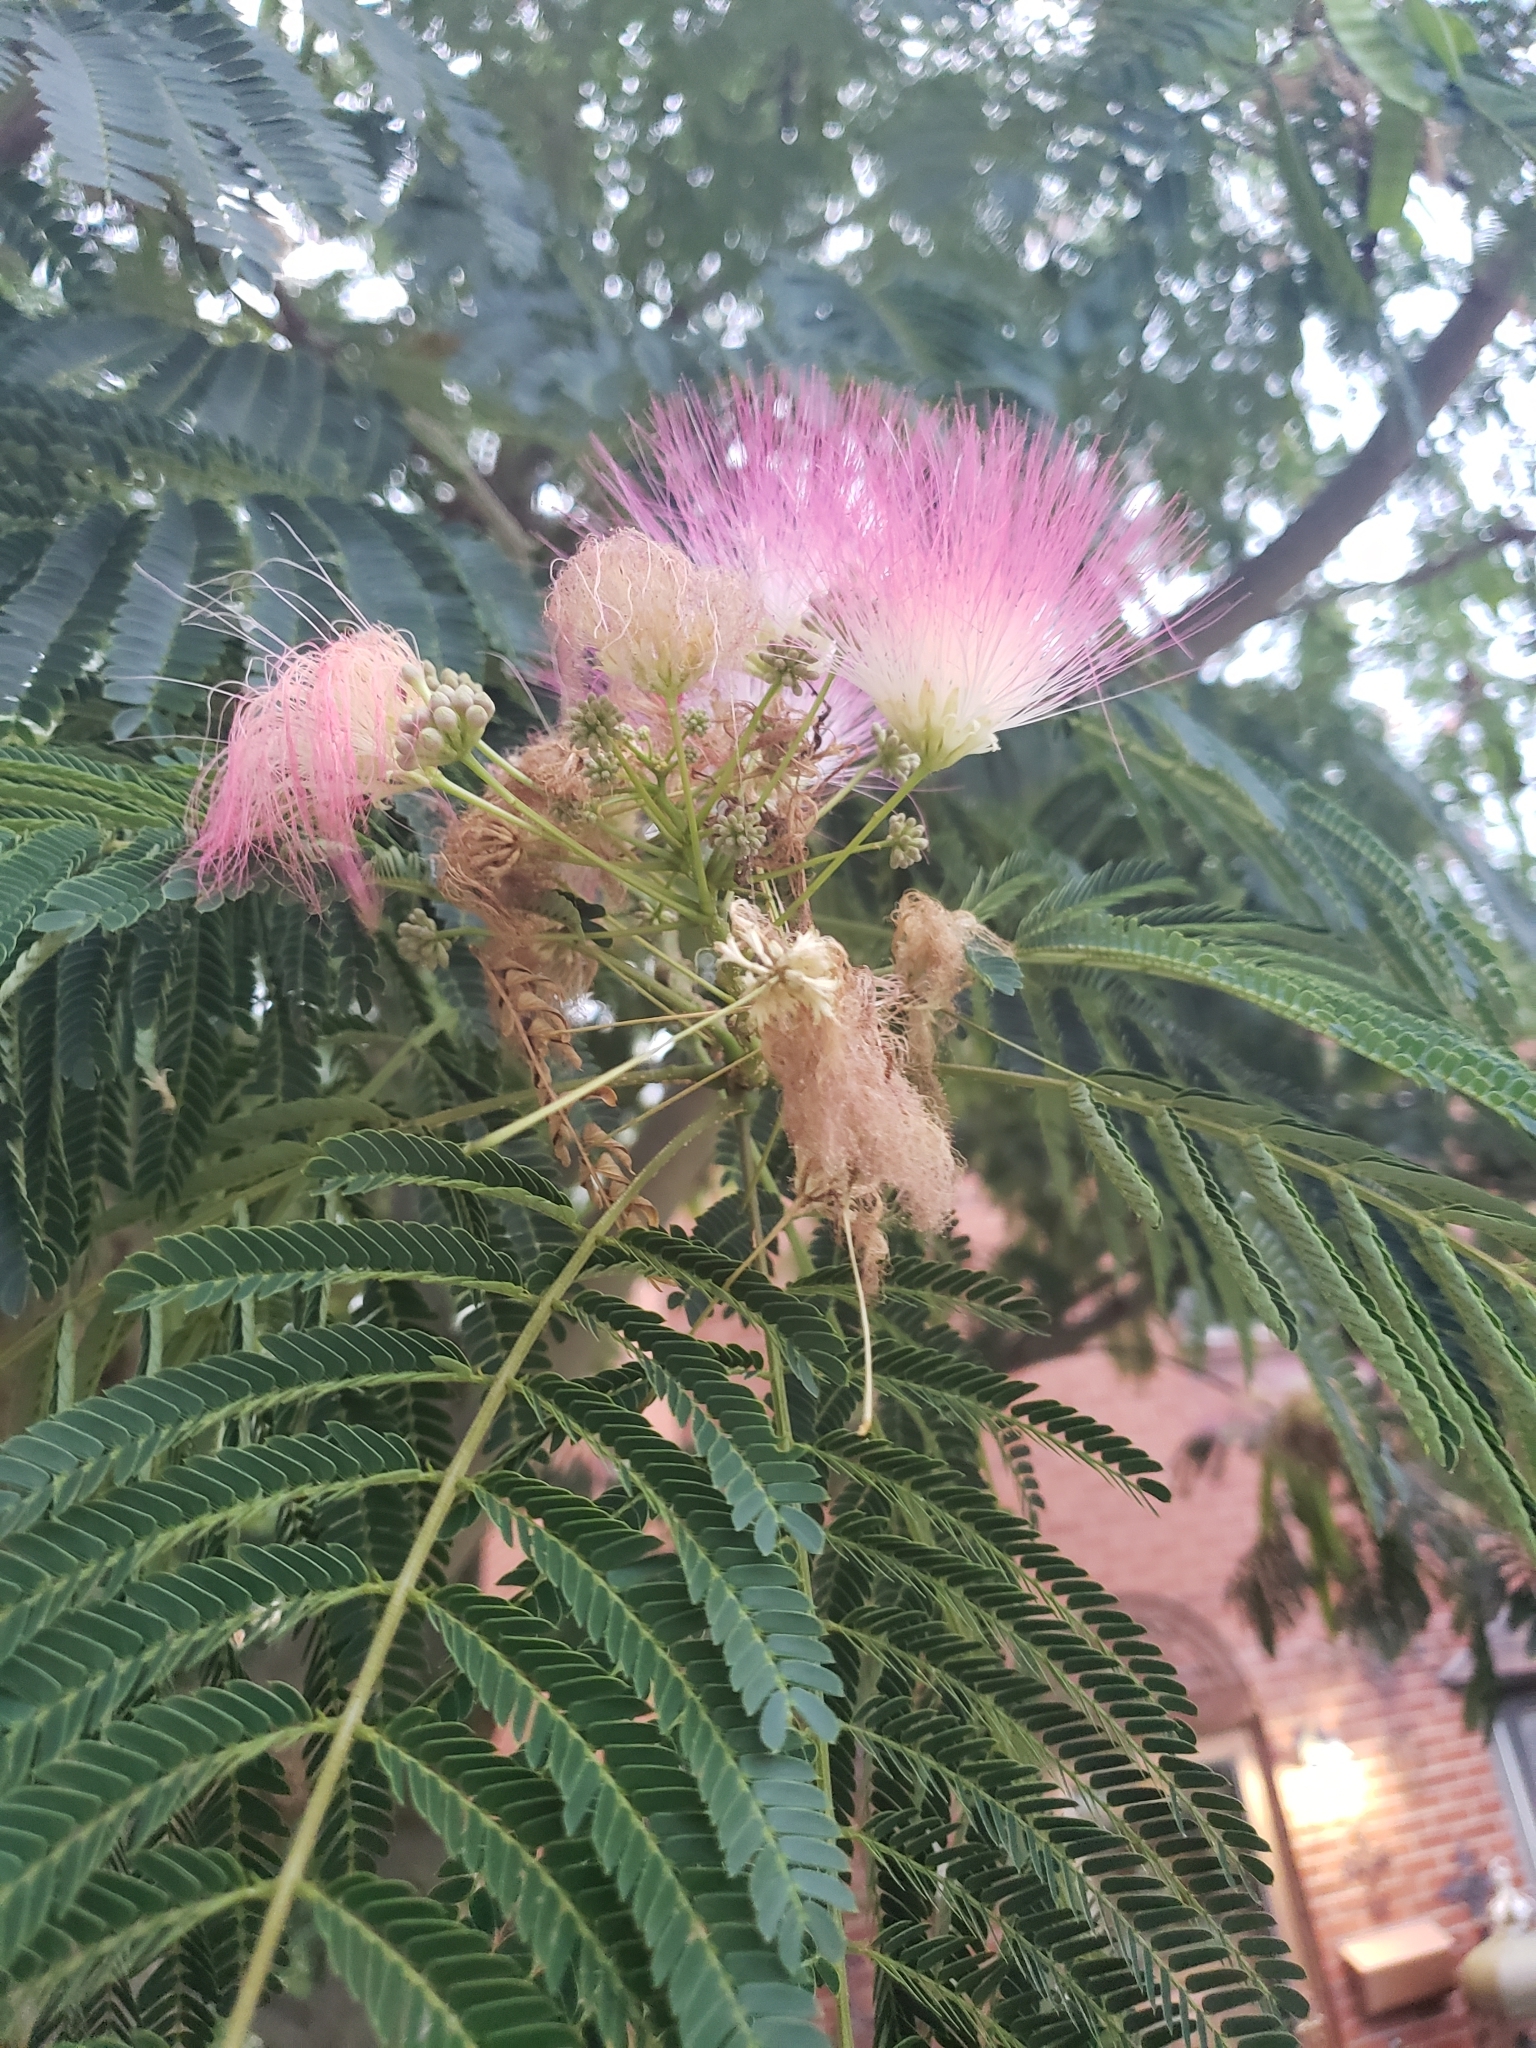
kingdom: Plantae
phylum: Tracheophyta
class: Magnoliopsida
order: Fabales
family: Fabaceae
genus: Albizia
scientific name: Albizia julibrissin
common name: Silktree
